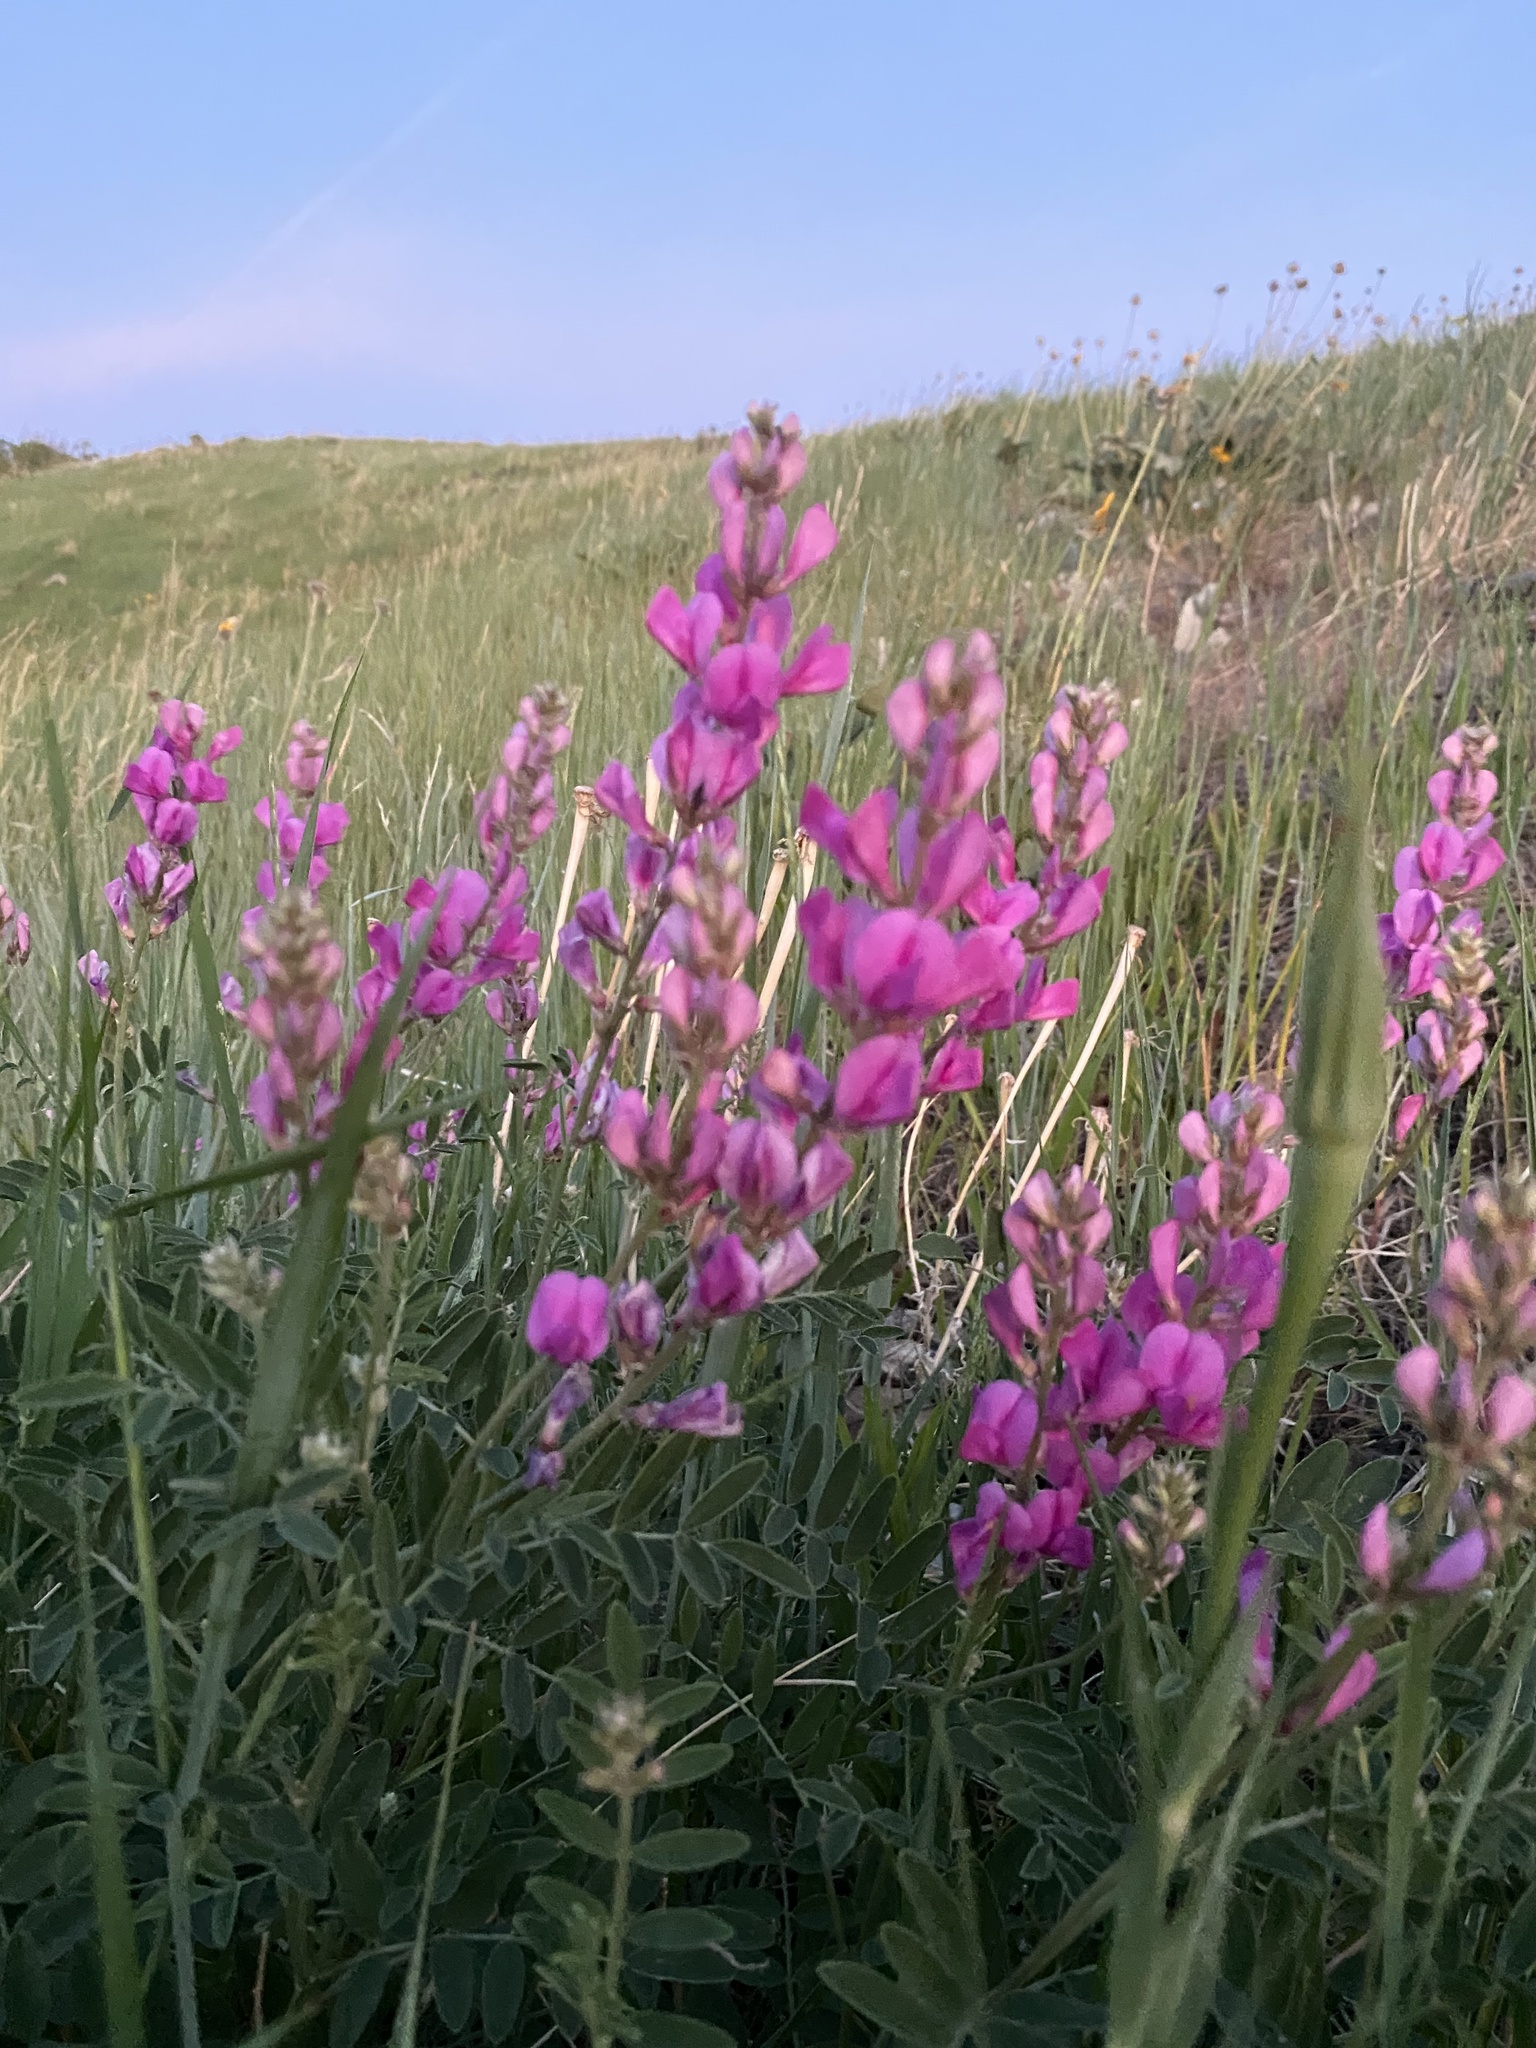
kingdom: Plantae
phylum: Tracheophyta
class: Magnoliopsida
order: Fabales
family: Fabaceae
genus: Hedysarum
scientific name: Hedysarum boreale
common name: Northern sweet-vetch
